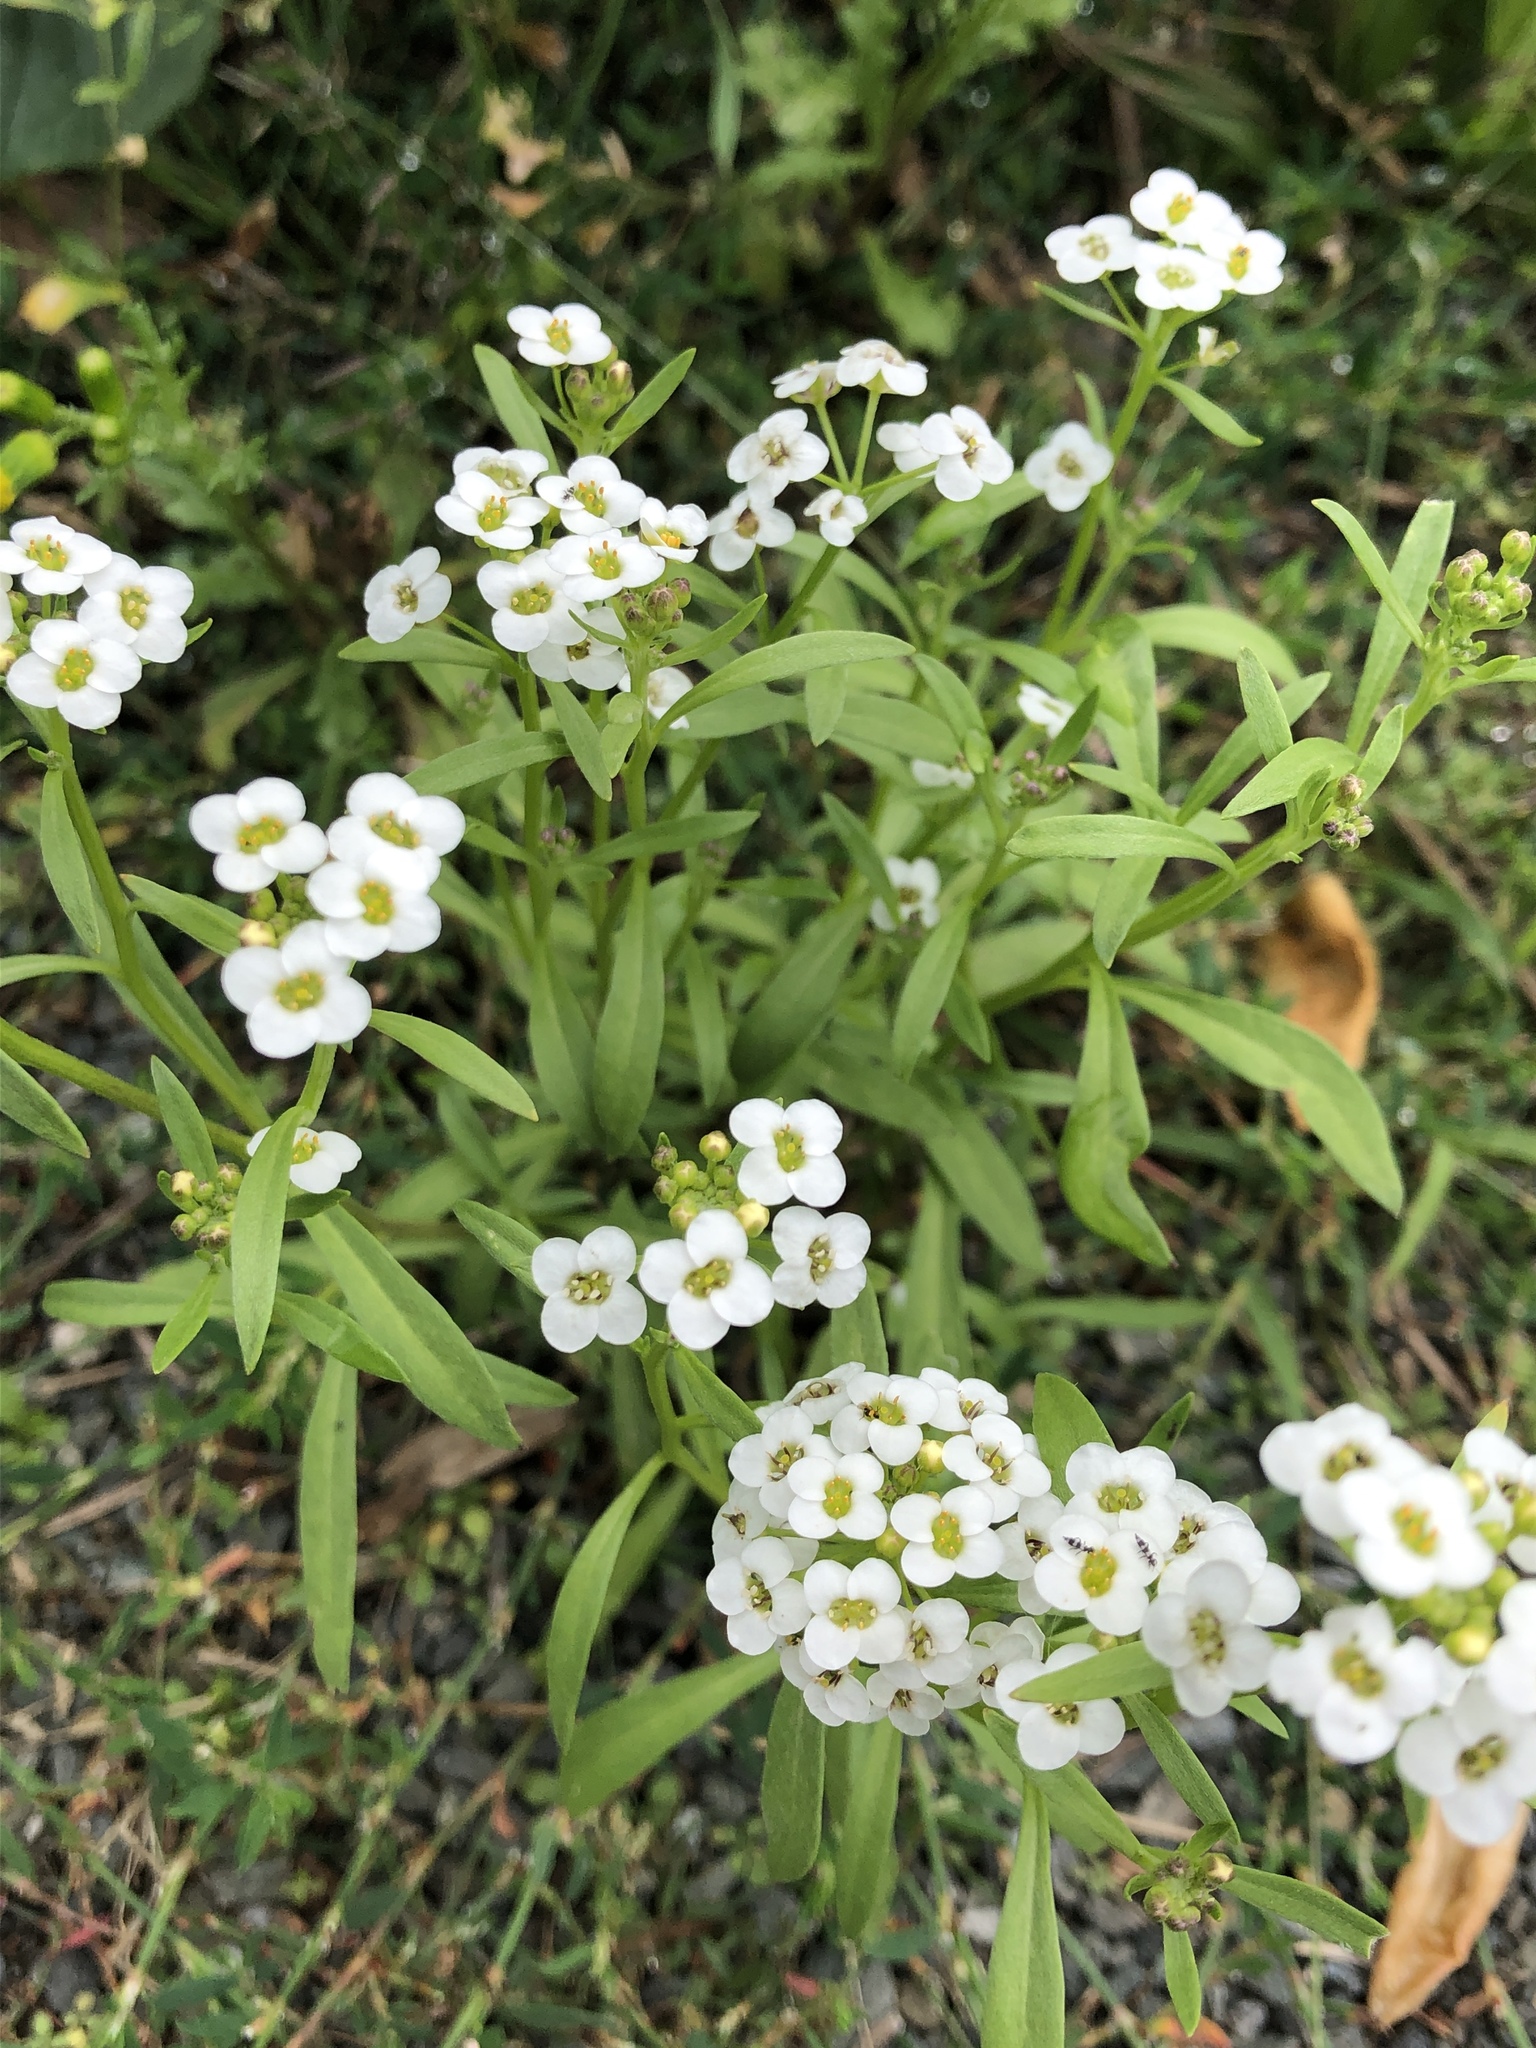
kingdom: Plantae
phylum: Tracheophyta
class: Magnoliopsida
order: Brassicales
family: Brassicaceae
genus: Lobularia
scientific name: Lobularia maritima
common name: Sweet alison
